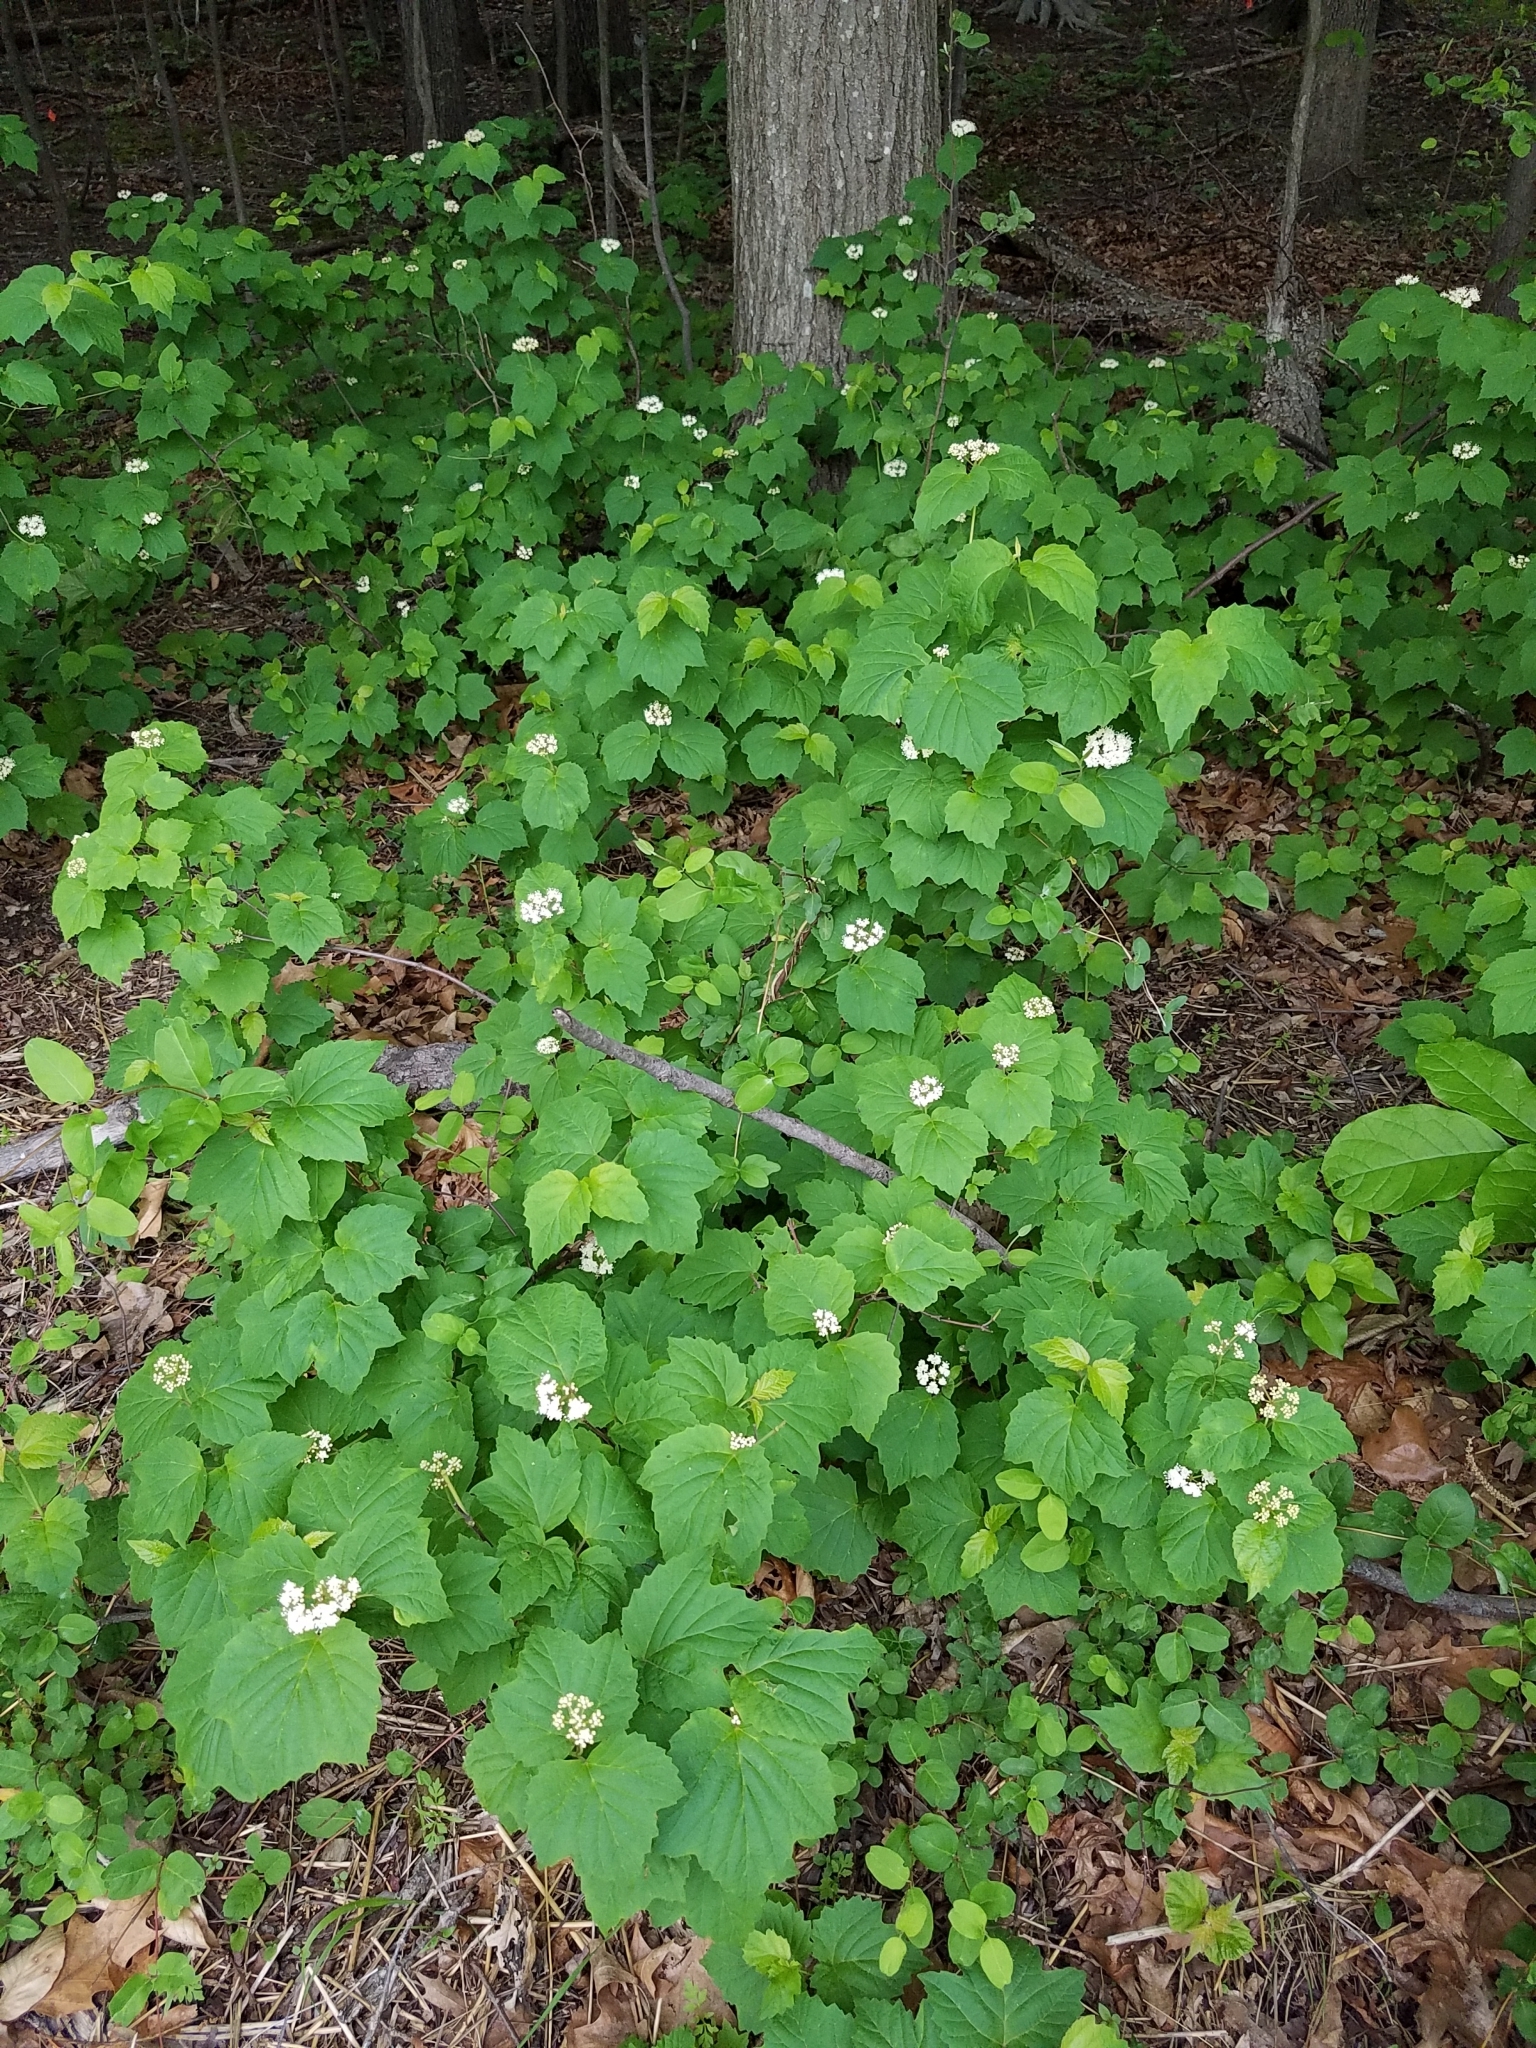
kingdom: Plantae
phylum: Tracheophyta
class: Magnoliopsida
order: Dipsacales
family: Viburnaceae
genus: Viburnum
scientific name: Viburnum acerifolium
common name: Dockmackie
